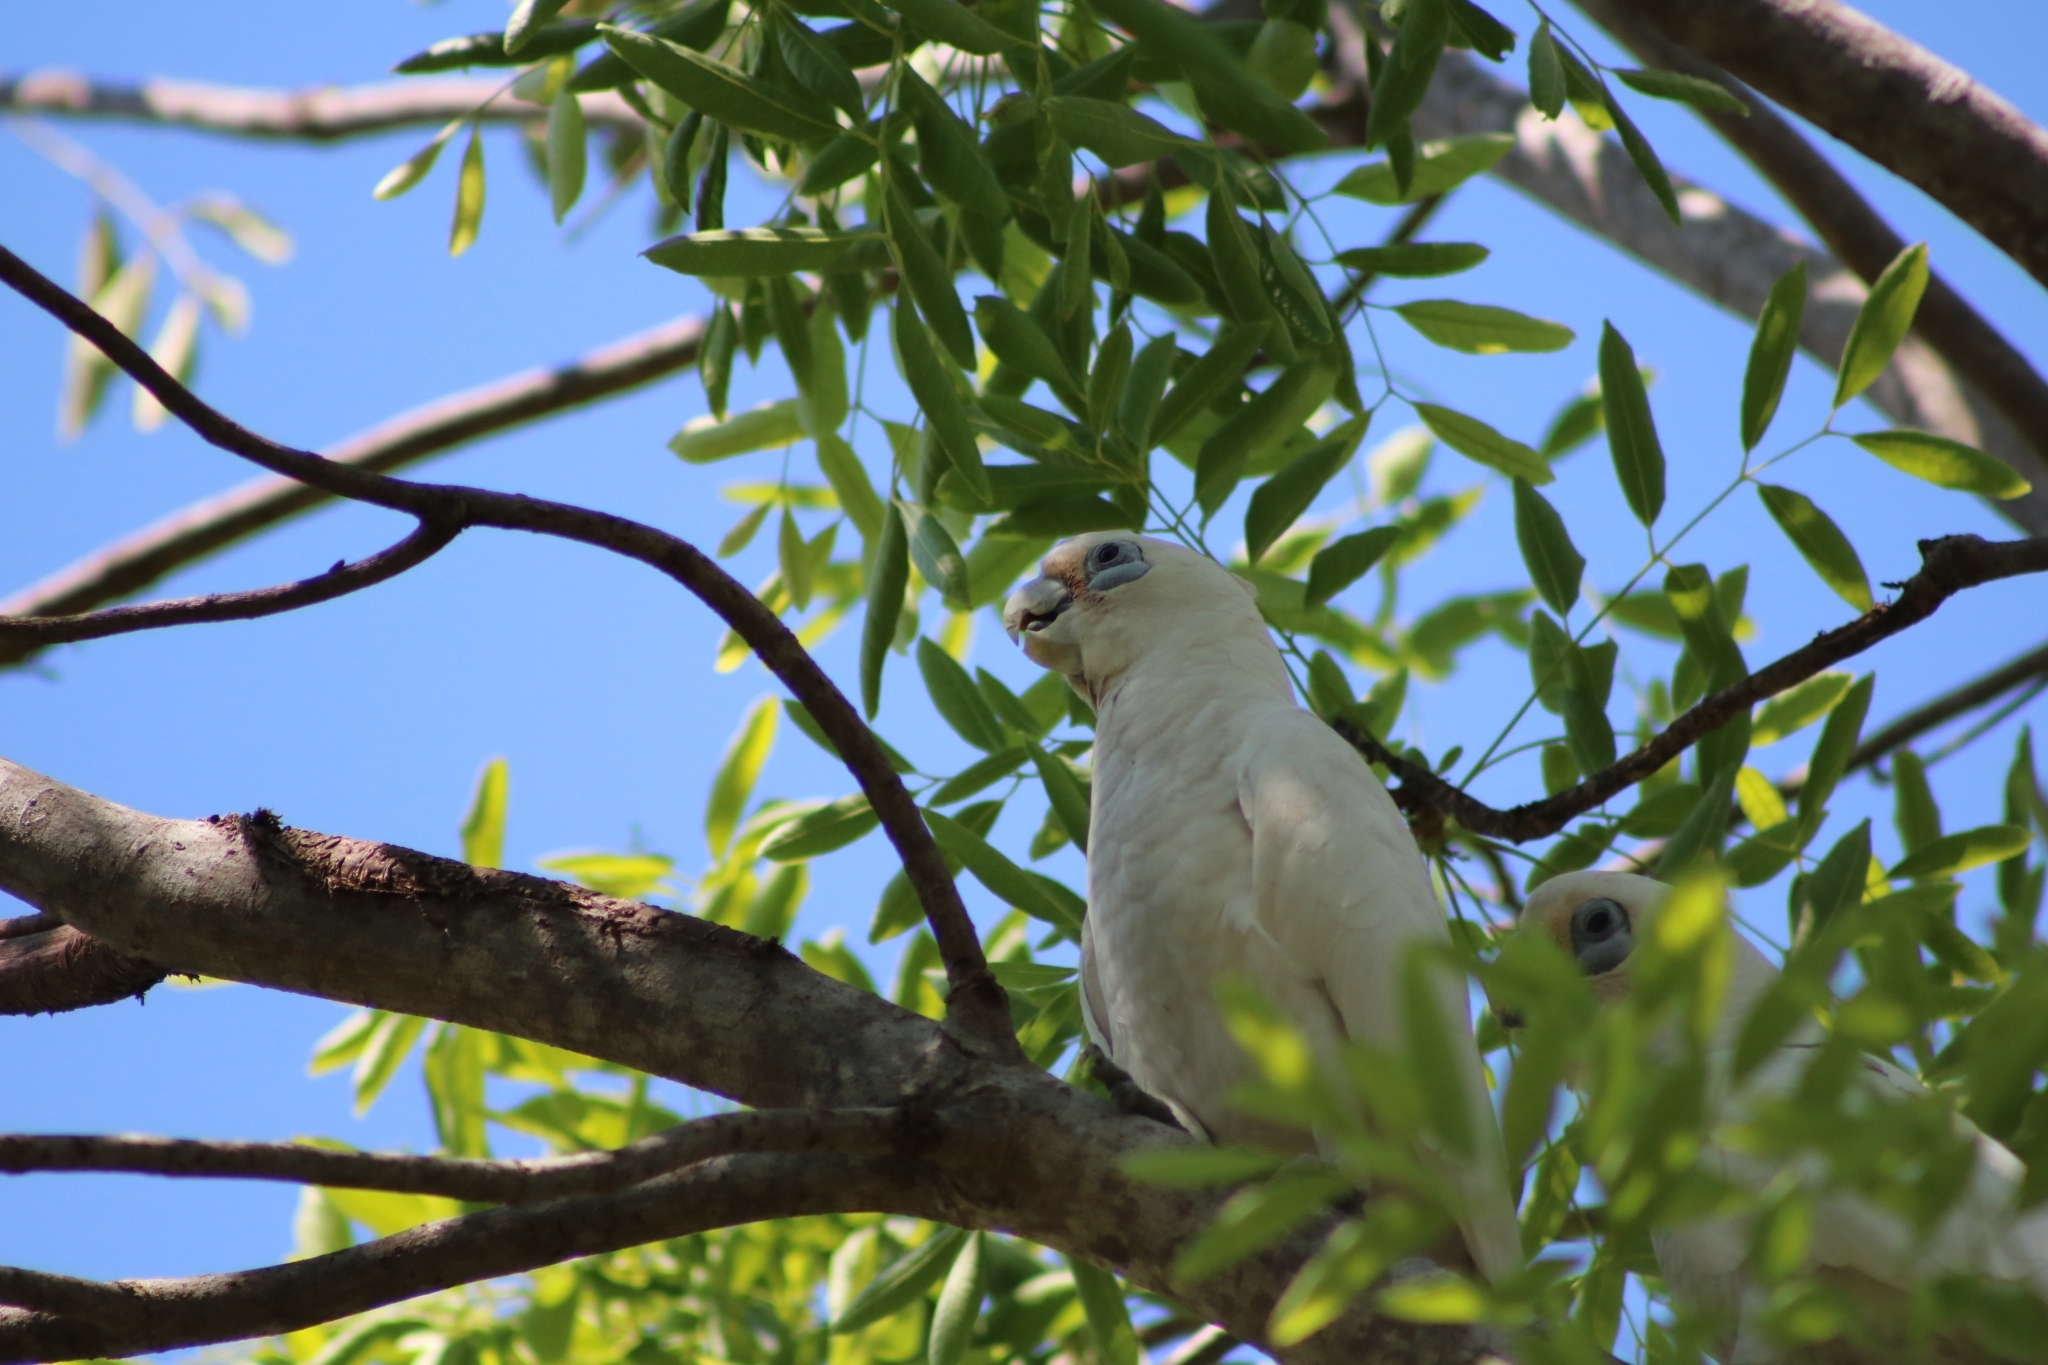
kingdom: Animalia
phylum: Chordata
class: Aves
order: Psittaciformes
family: Psittacidae
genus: Cacatua
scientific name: Cacatua sanguinea
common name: Little corella
